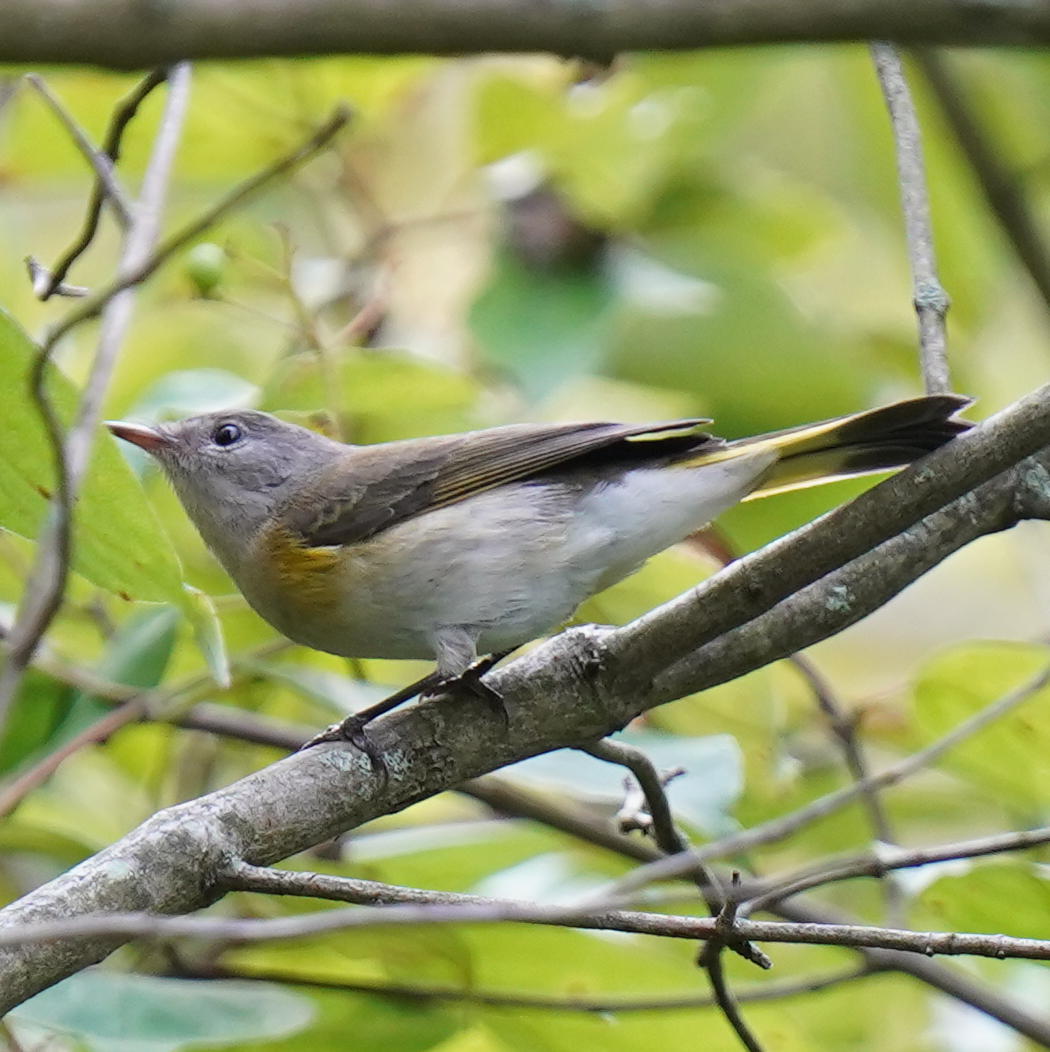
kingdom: Animalia
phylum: Chordata
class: Aves
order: Passeriformes
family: Parulidae
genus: Setophaga
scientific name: Setophaga ruticilla
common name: American redstart
